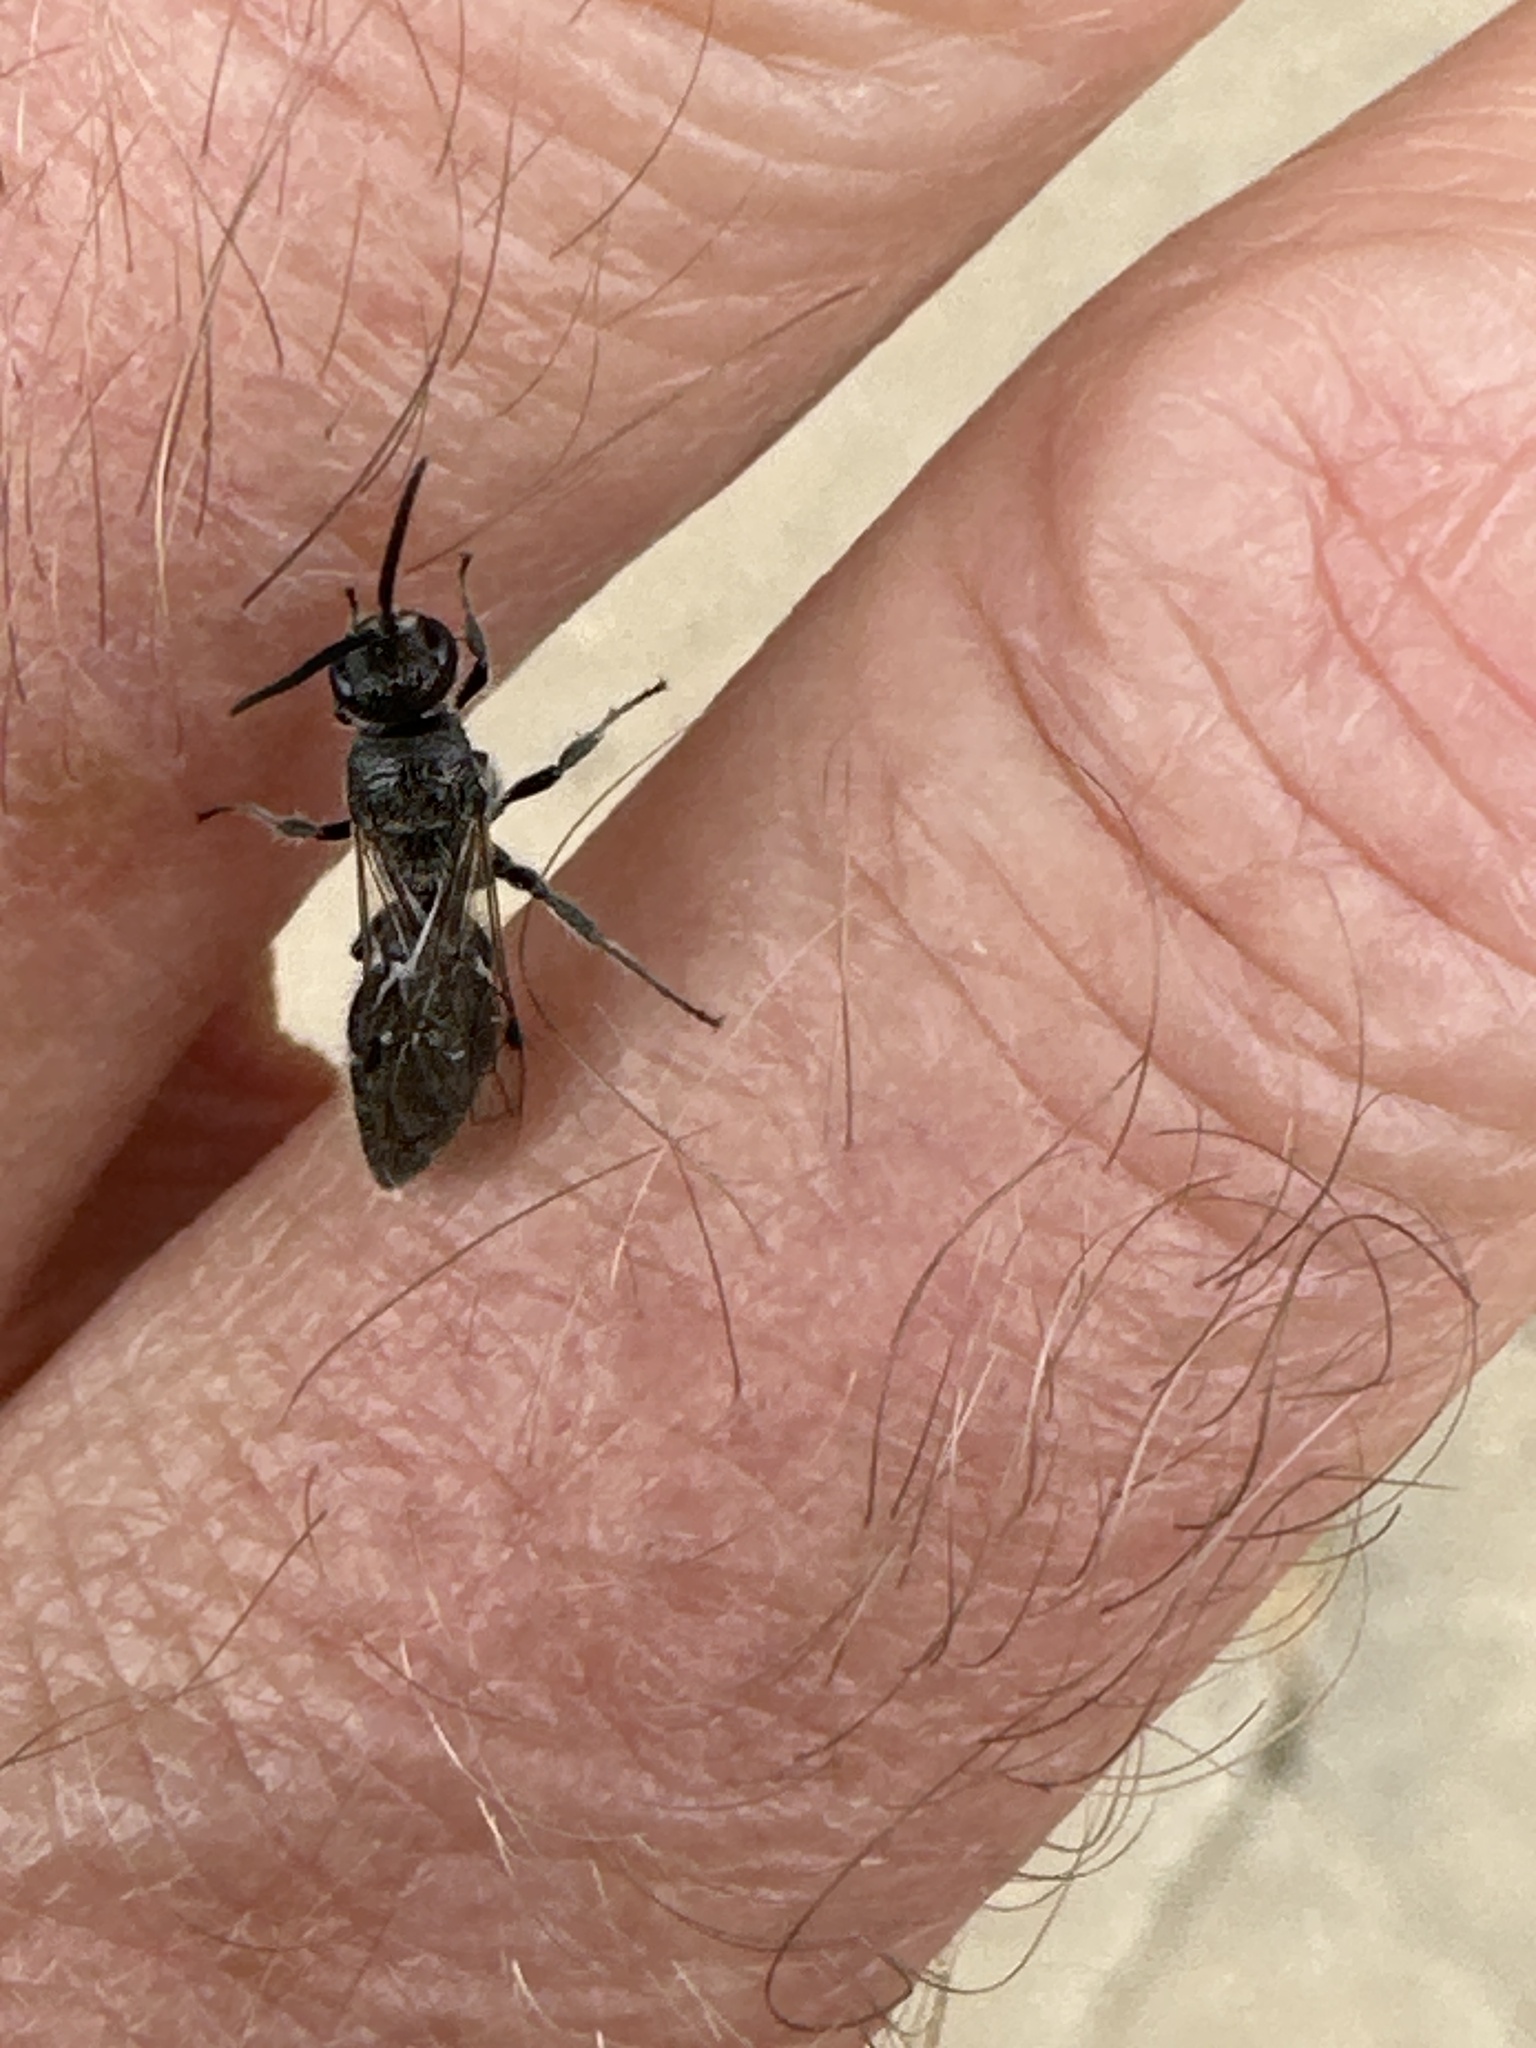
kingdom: Animalia
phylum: Arthropoda
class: Insecta
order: Hymenoptera
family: Tiphiidae
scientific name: Tiphiidae
